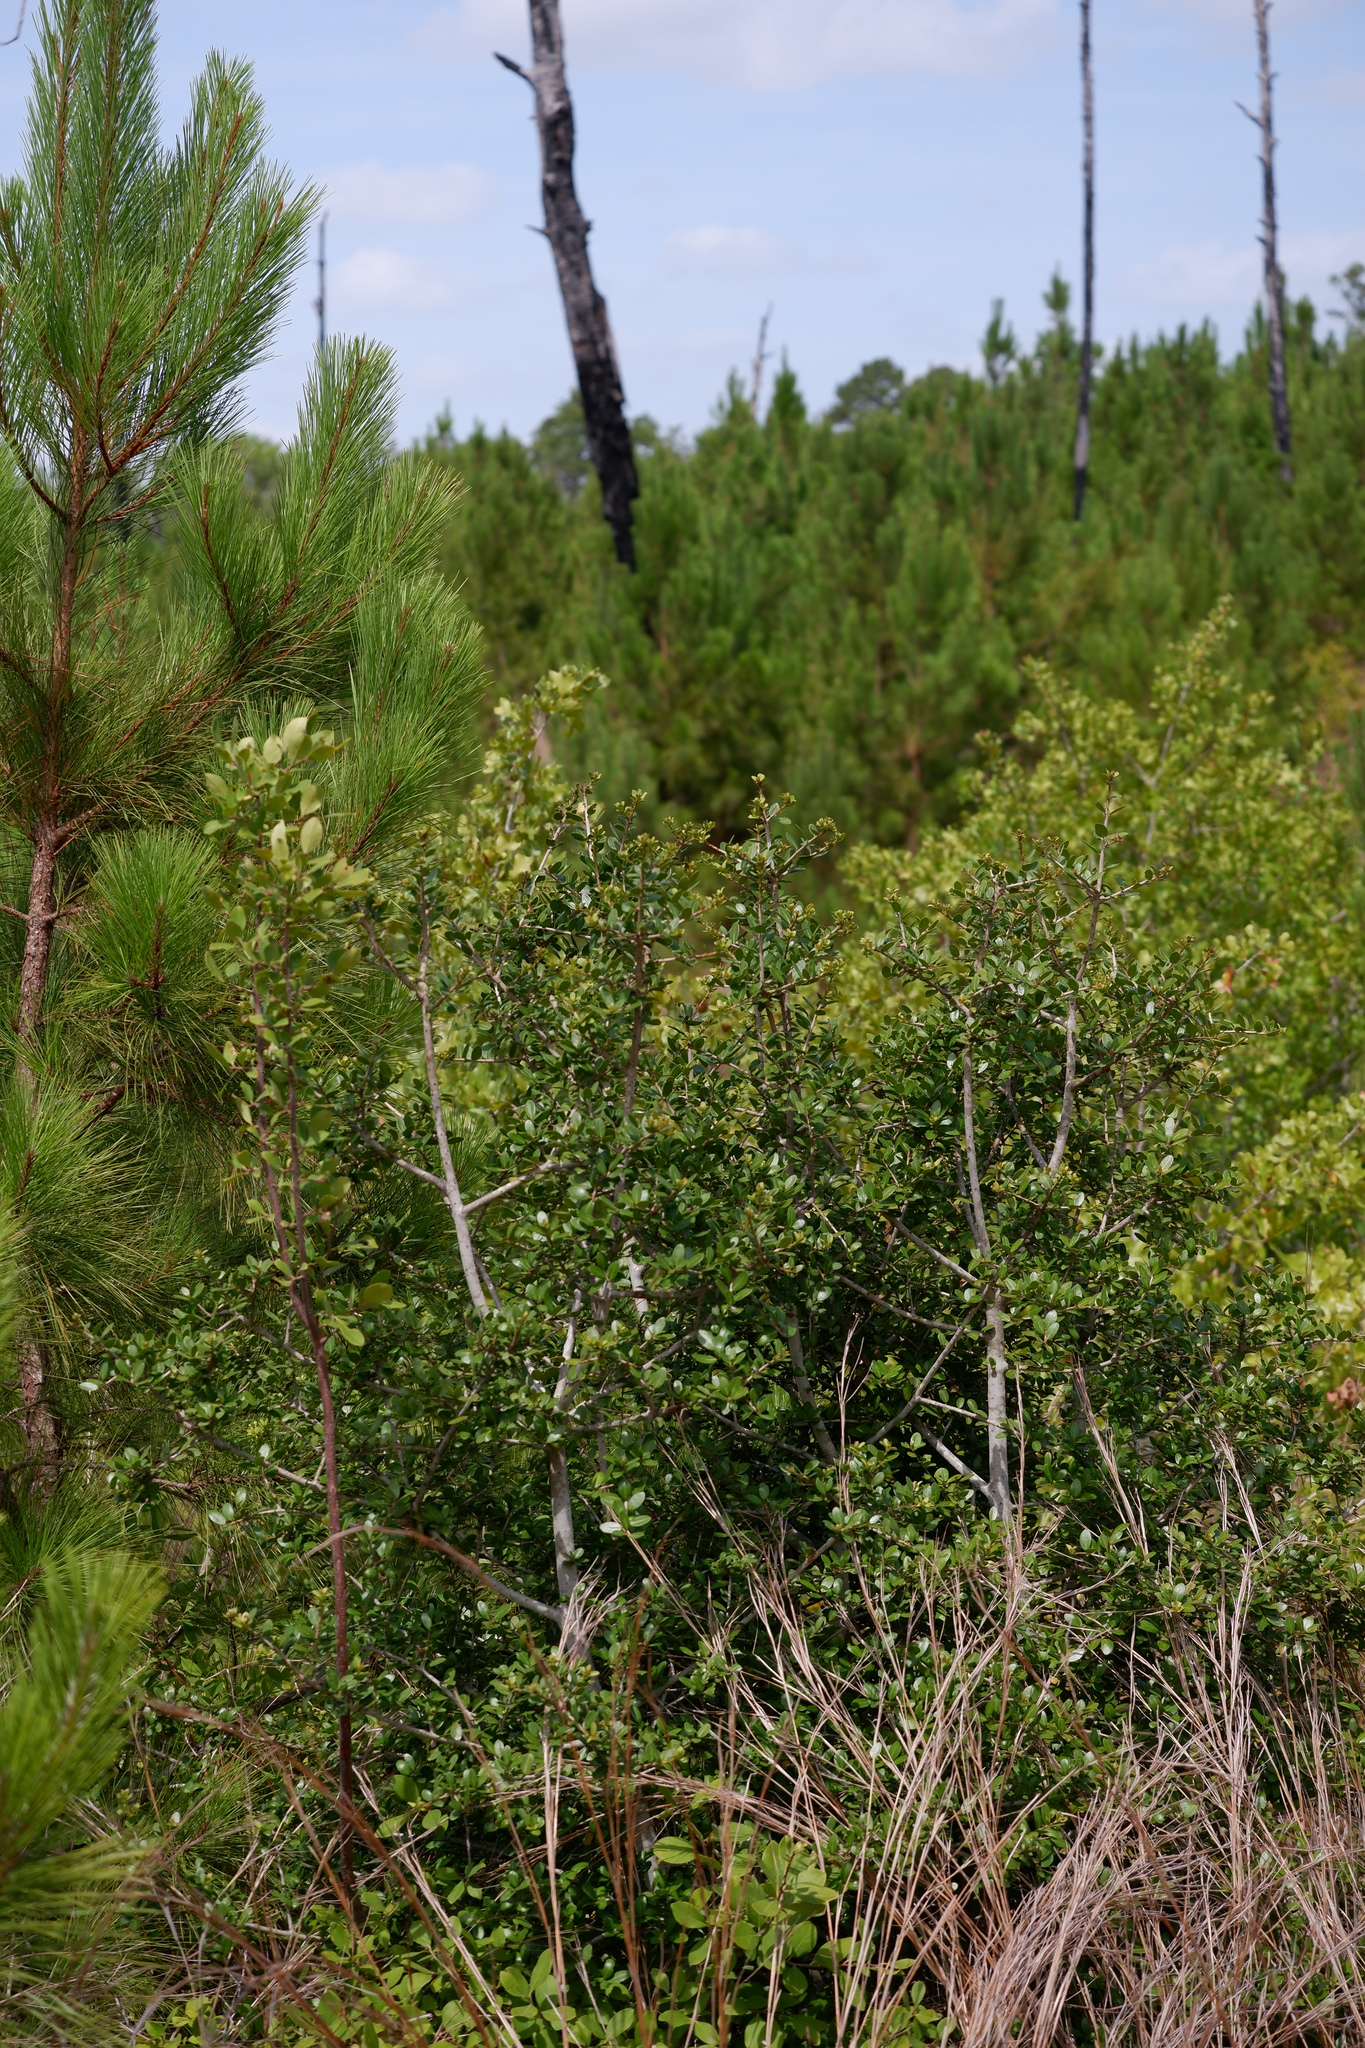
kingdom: Plantae
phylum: Tracheophyta
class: Magnoliopsida
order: Aquifoliales
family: Aquifoliaceae
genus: Ilex
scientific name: Ilex vomitoria
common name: Yaupon holly
